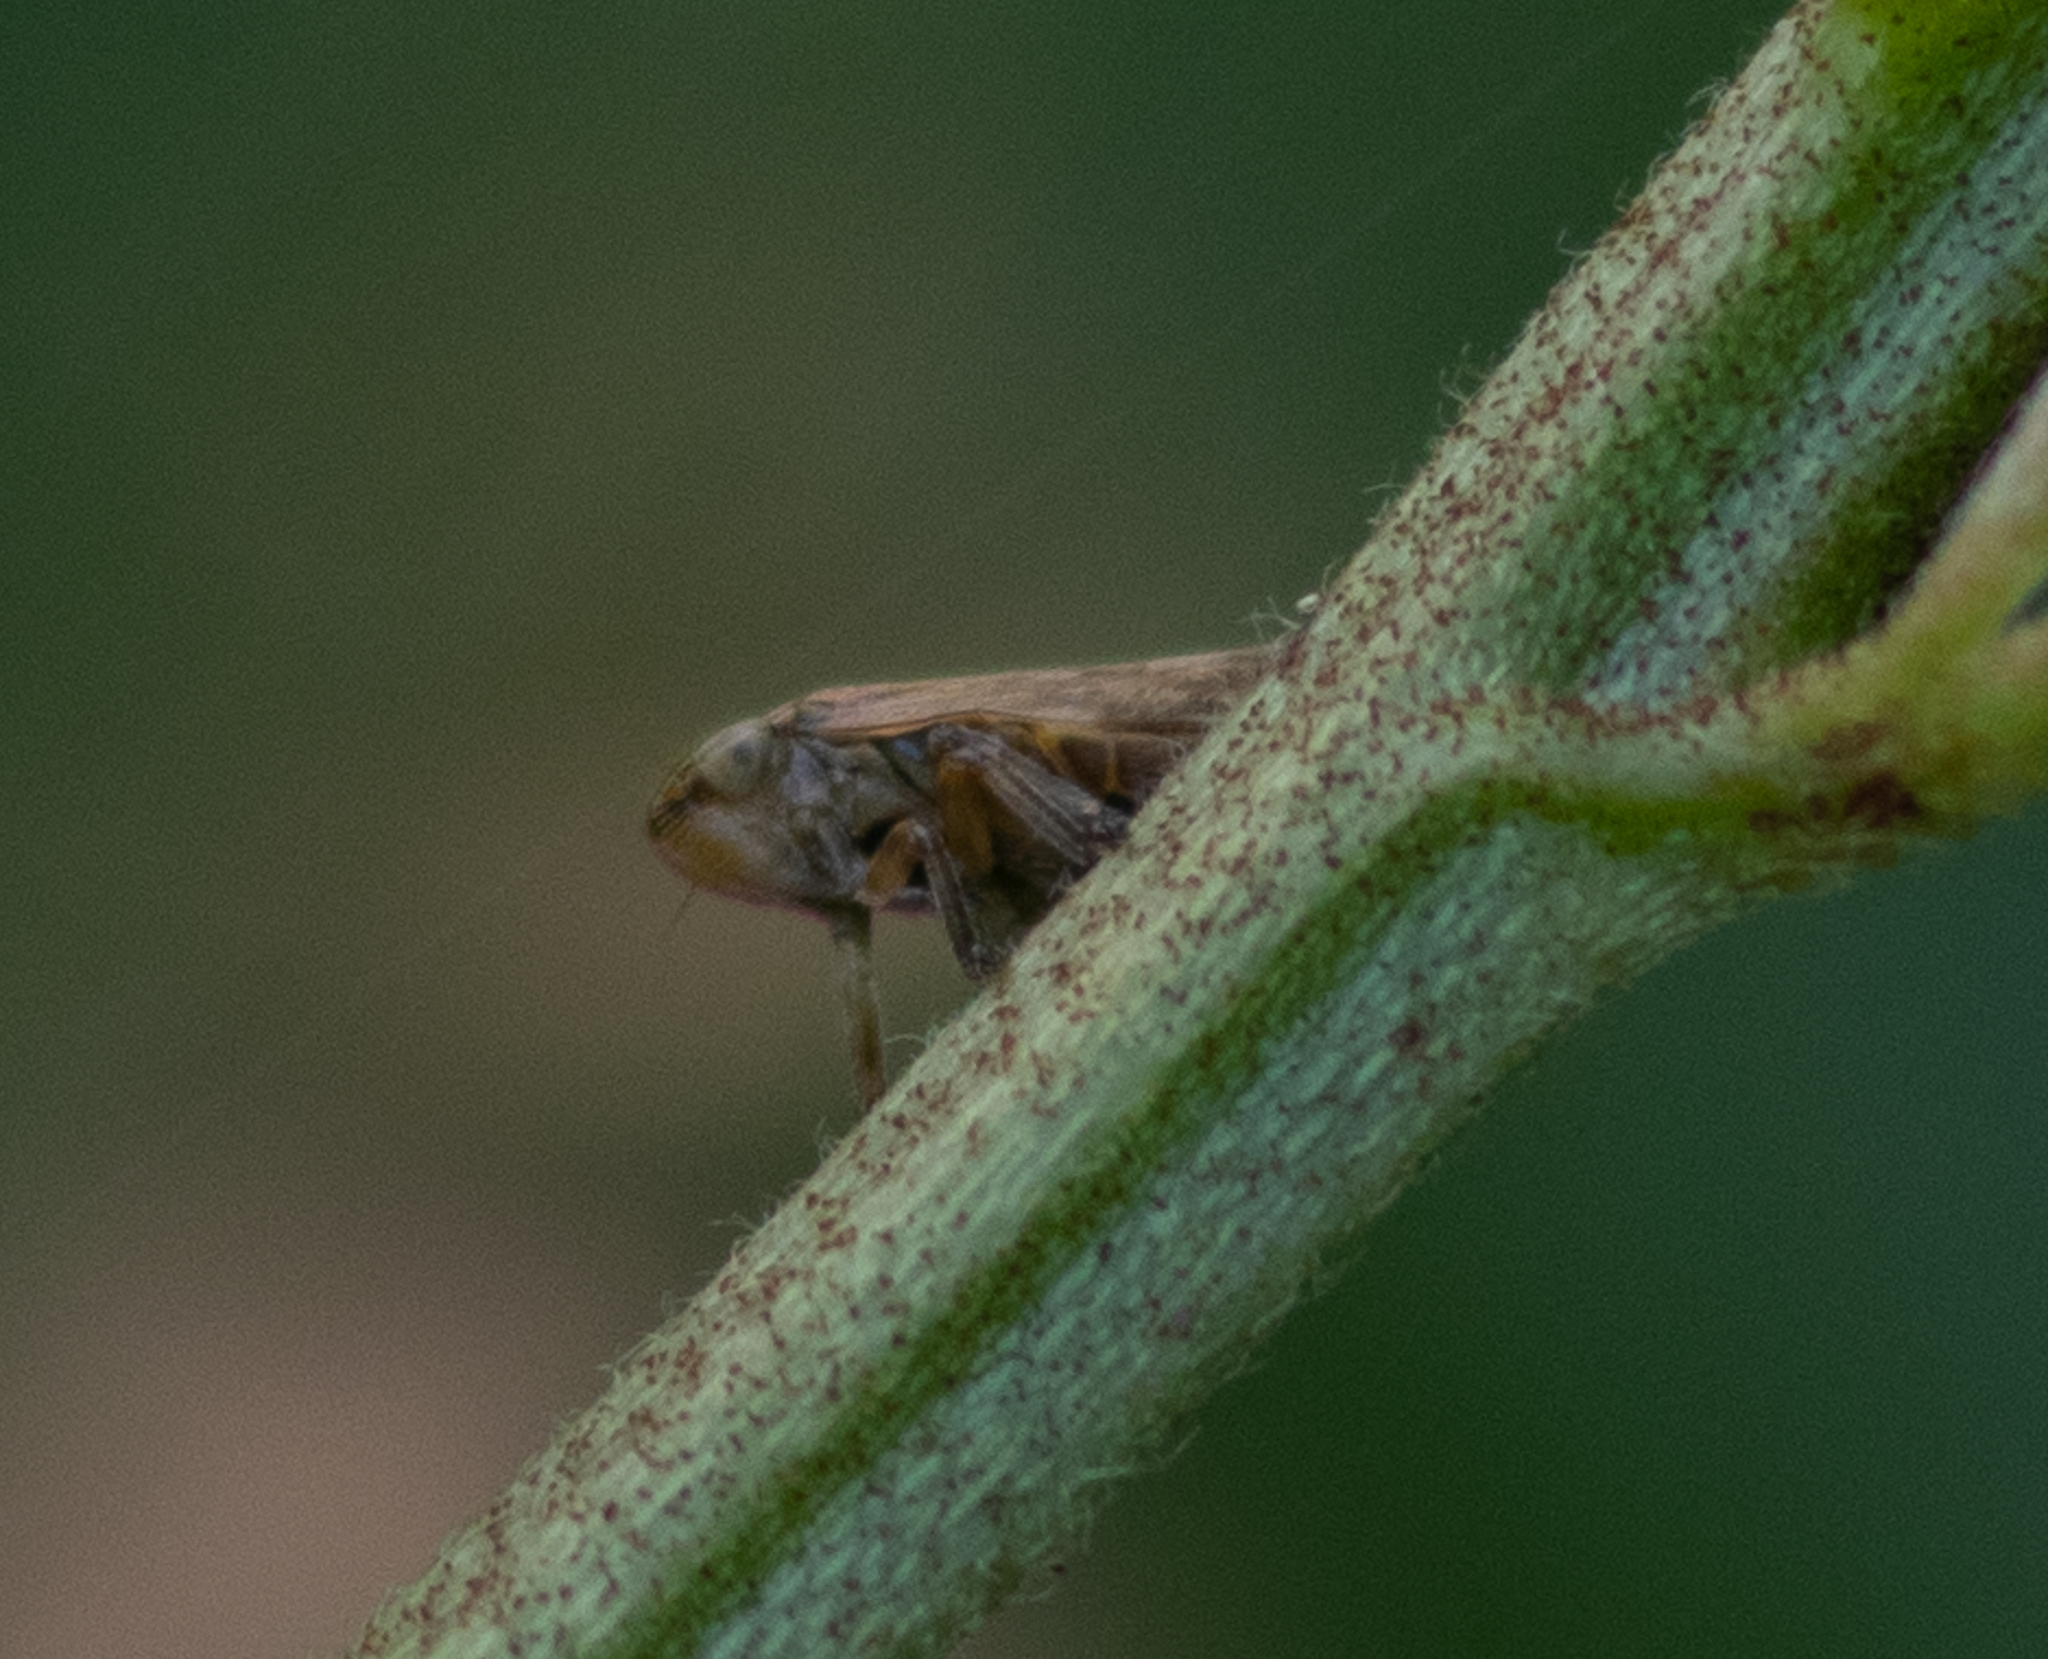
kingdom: Animalia
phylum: Arthropoda
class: Insecta
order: Hemiptera
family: Aphrophoridae
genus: Philaenus
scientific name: Philaenus spumarius
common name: Meadow spittlebug
